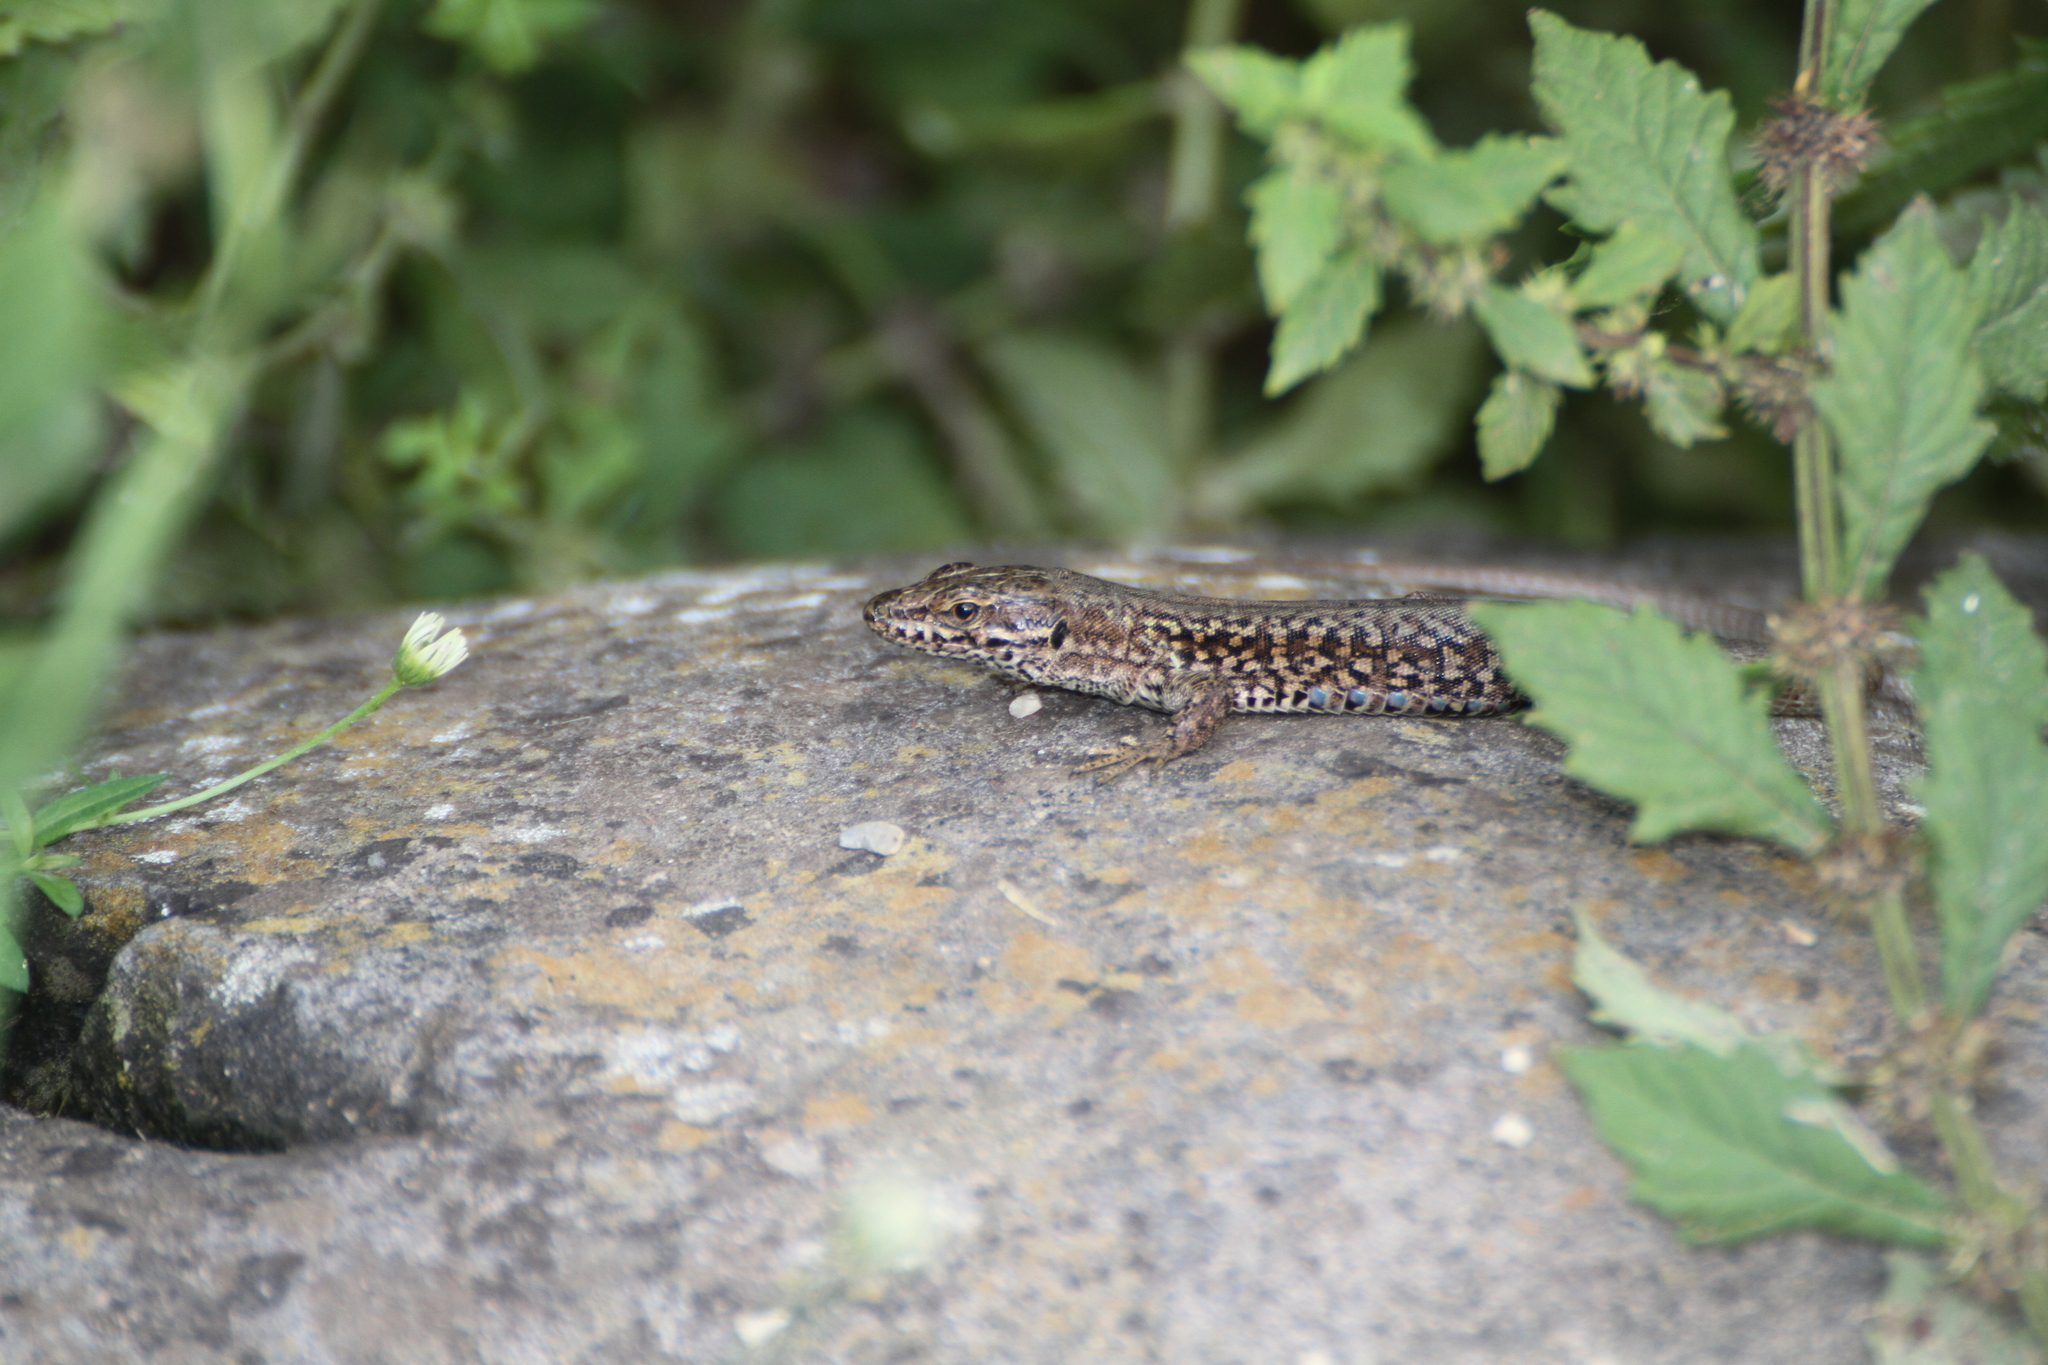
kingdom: Animalia
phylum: Chordata
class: Squamata
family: Lacertidae
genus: Podarcis
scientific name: Podarcis muralis
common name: Common wall lizard
